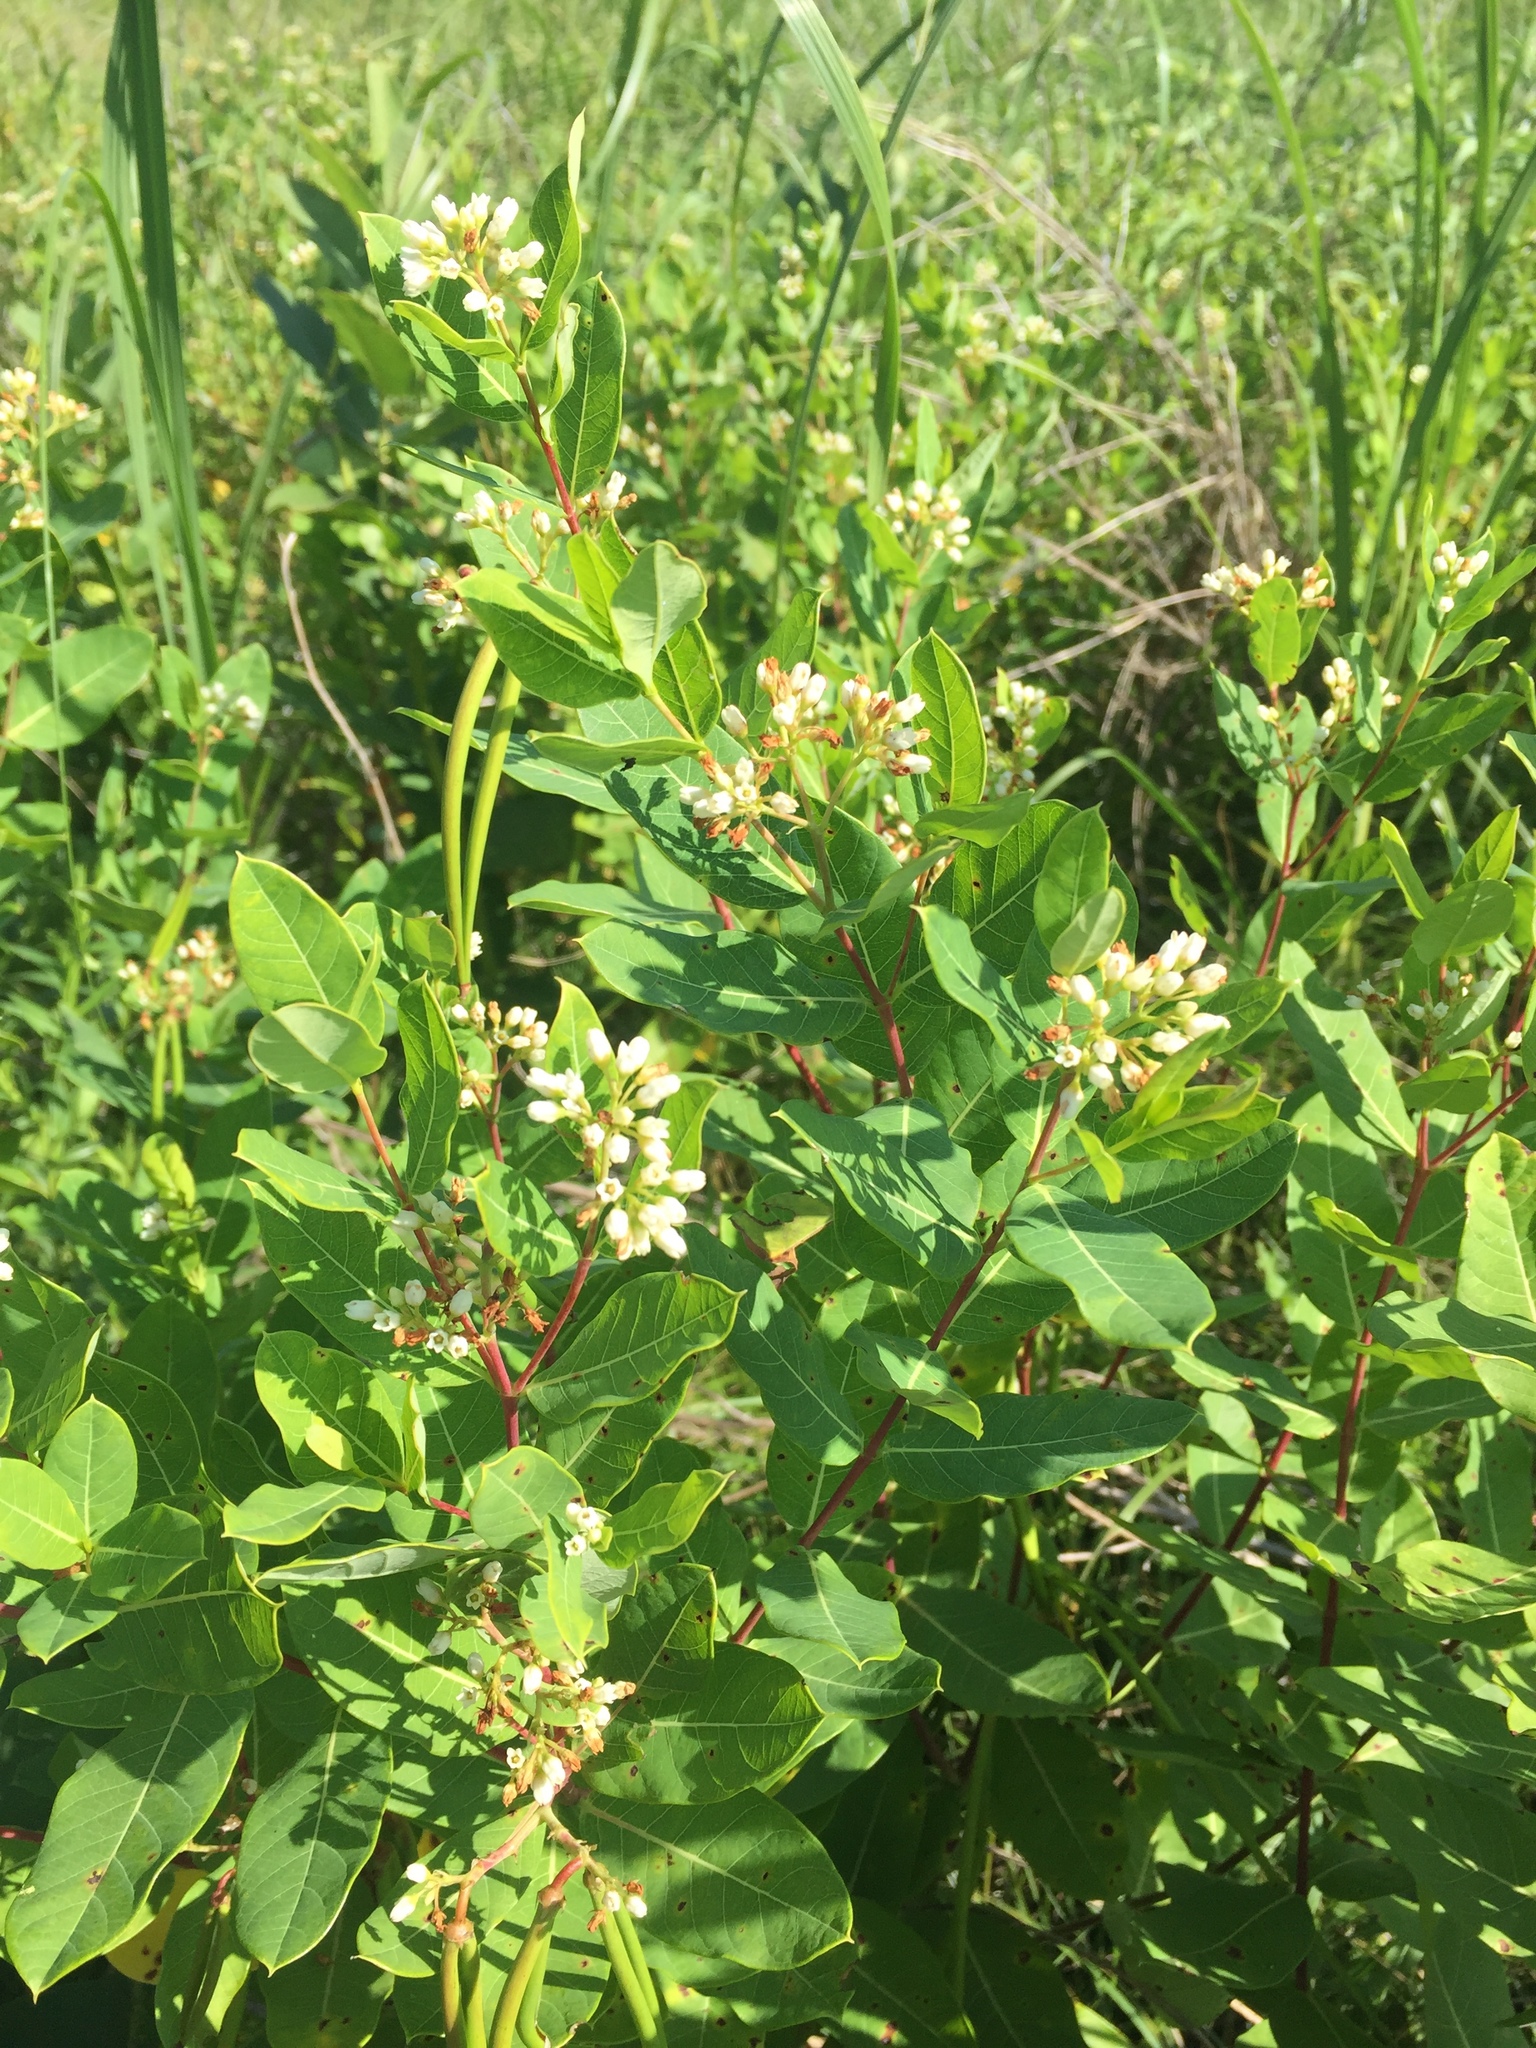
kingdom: Plantae
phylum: Tracheophyta
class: Magnoliopsida
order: Gentianales
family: Apocynaceae
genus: Apocynum
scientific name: Apocynum cannabinum
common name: Hemp dogbane
